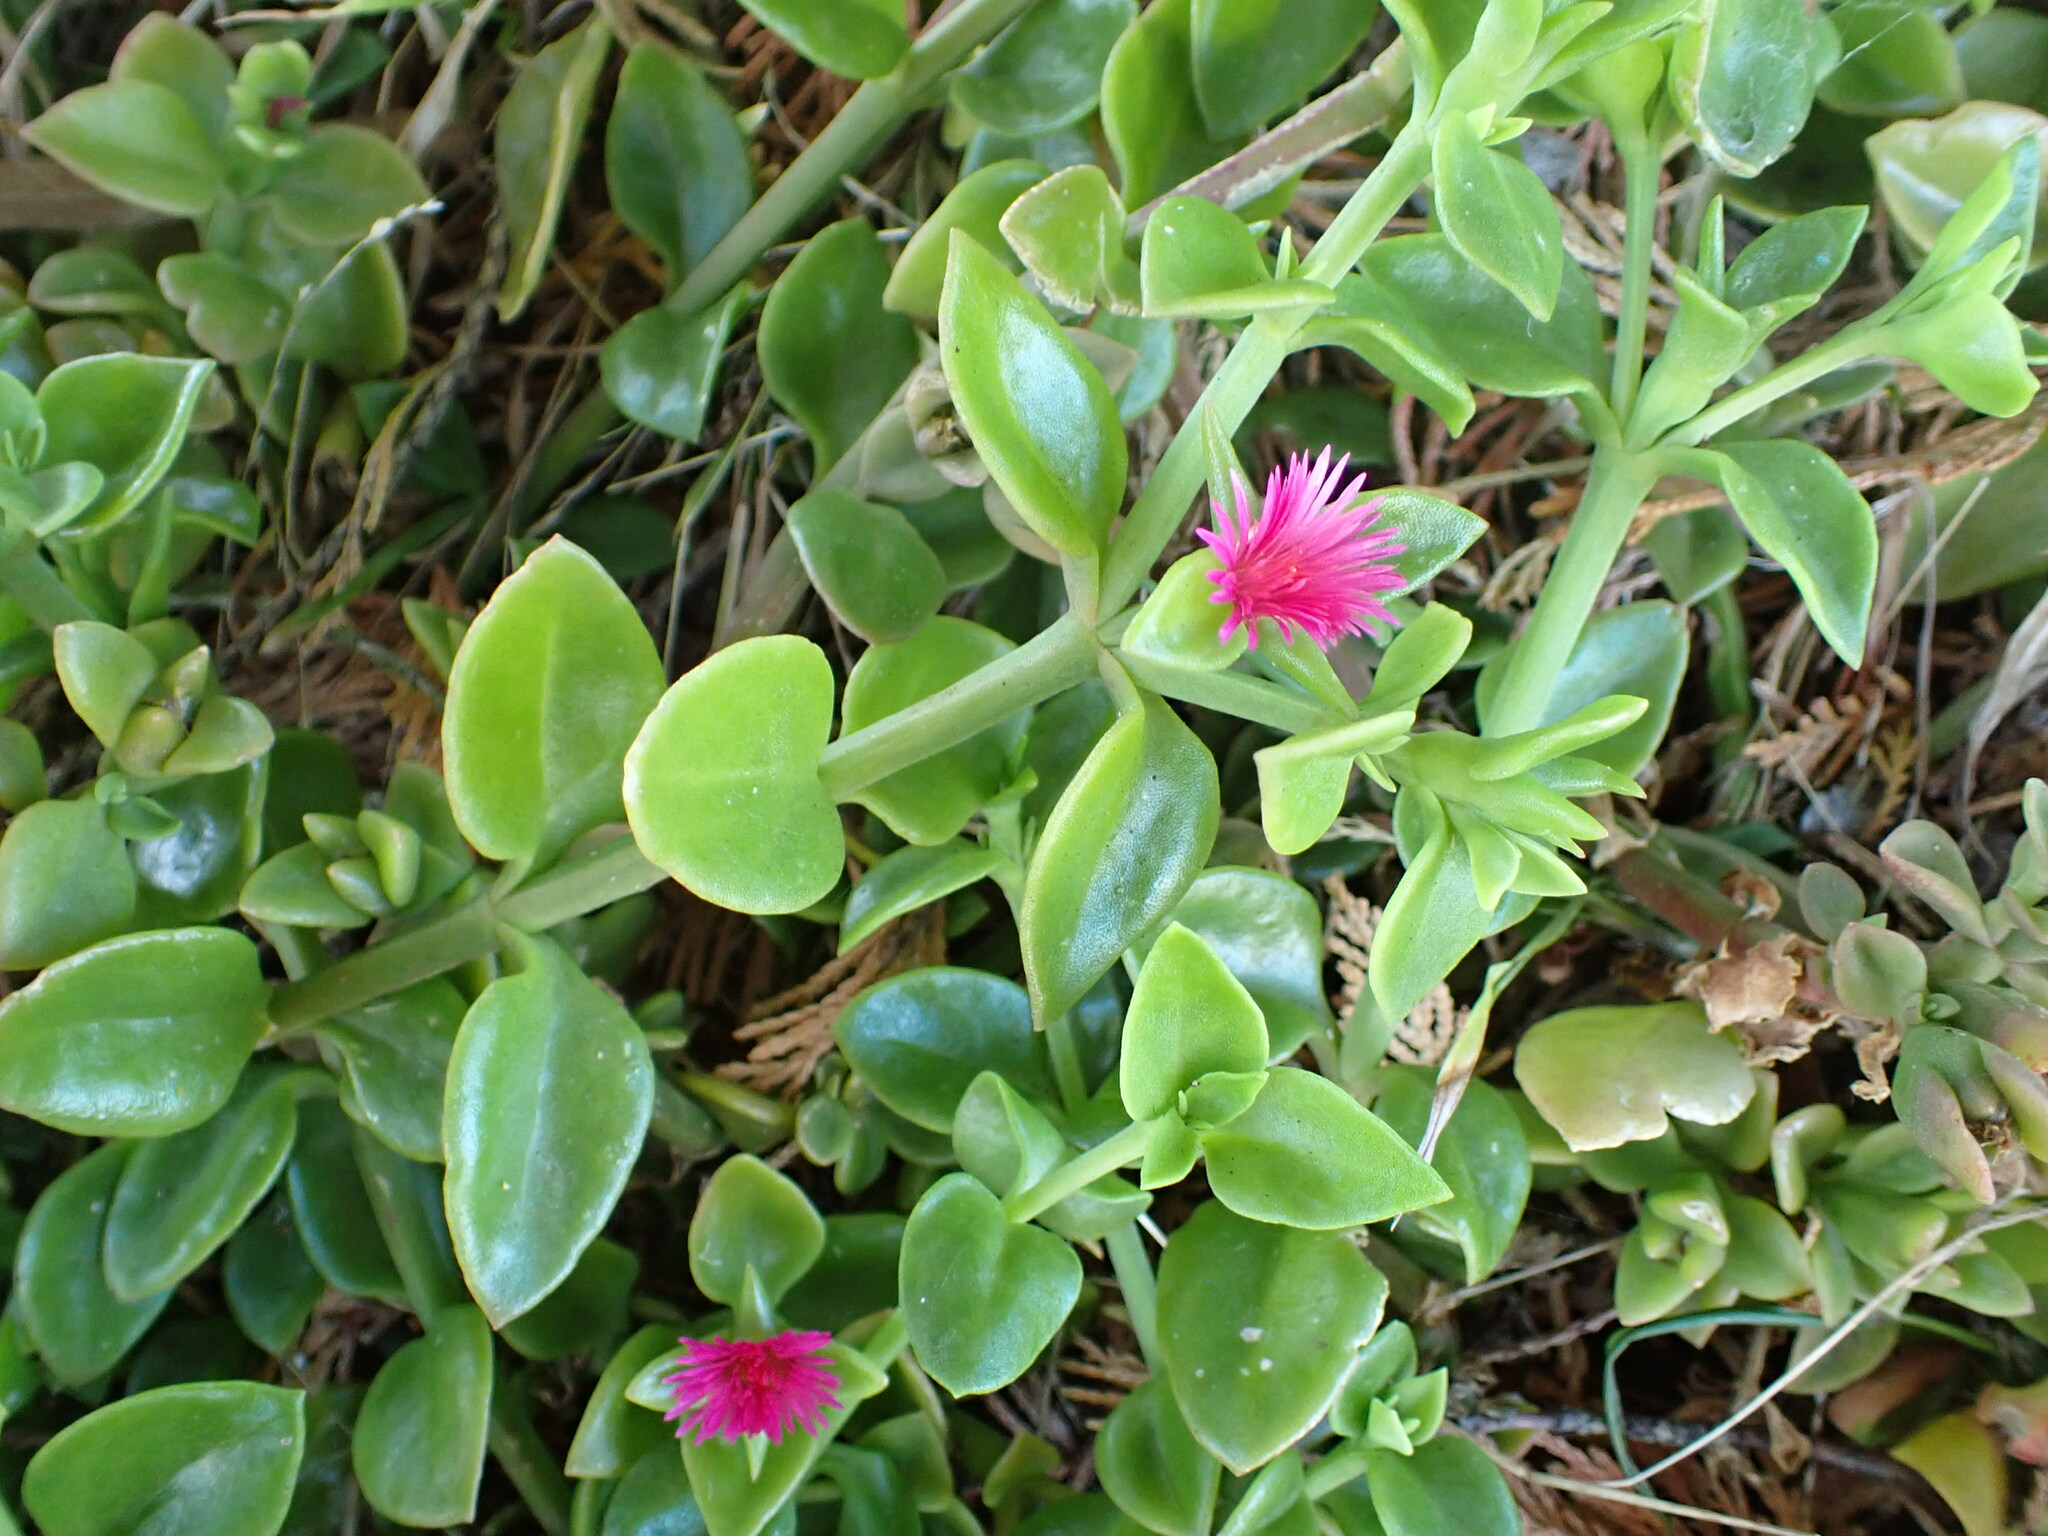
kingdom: Plantae
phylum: Tracheophyta
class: Magnoliopsida
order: Caryophyllales
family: Aizoaceae
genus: Mesembryanthemum
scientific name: Mesembryanthemum cordifolium
